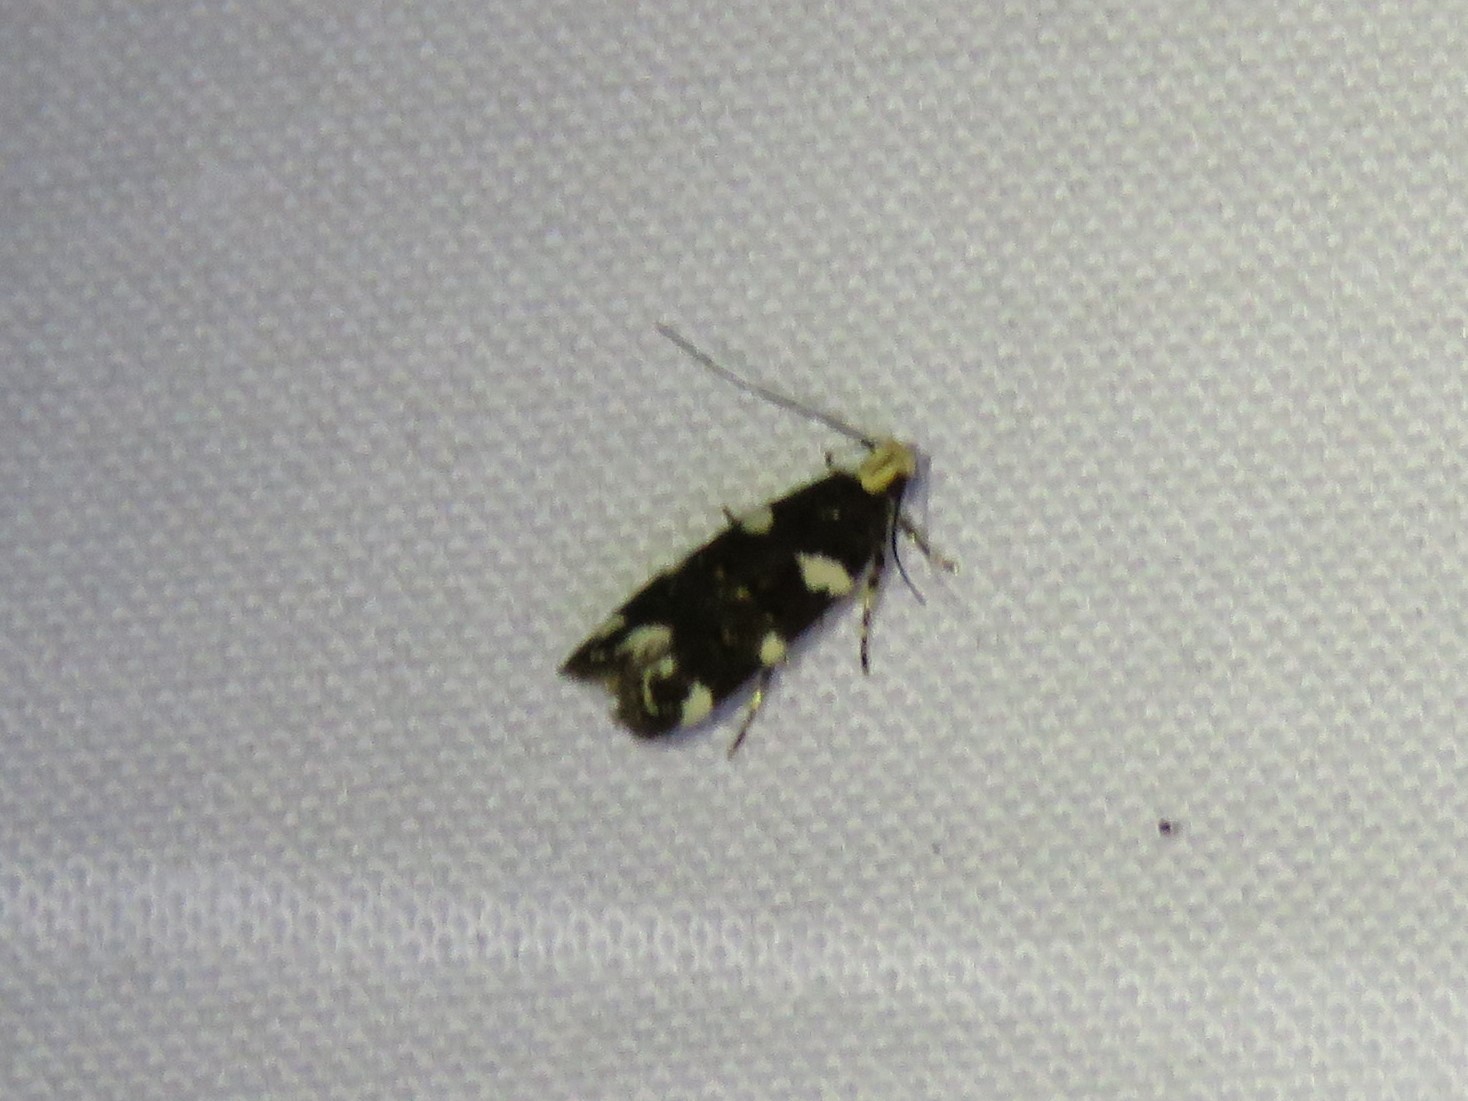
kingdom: Animalia
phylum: Arthropoda
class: Insecta
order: Lepidoptera
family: Gelechiidae
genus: Fascista
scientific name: Fascista cercerisella
